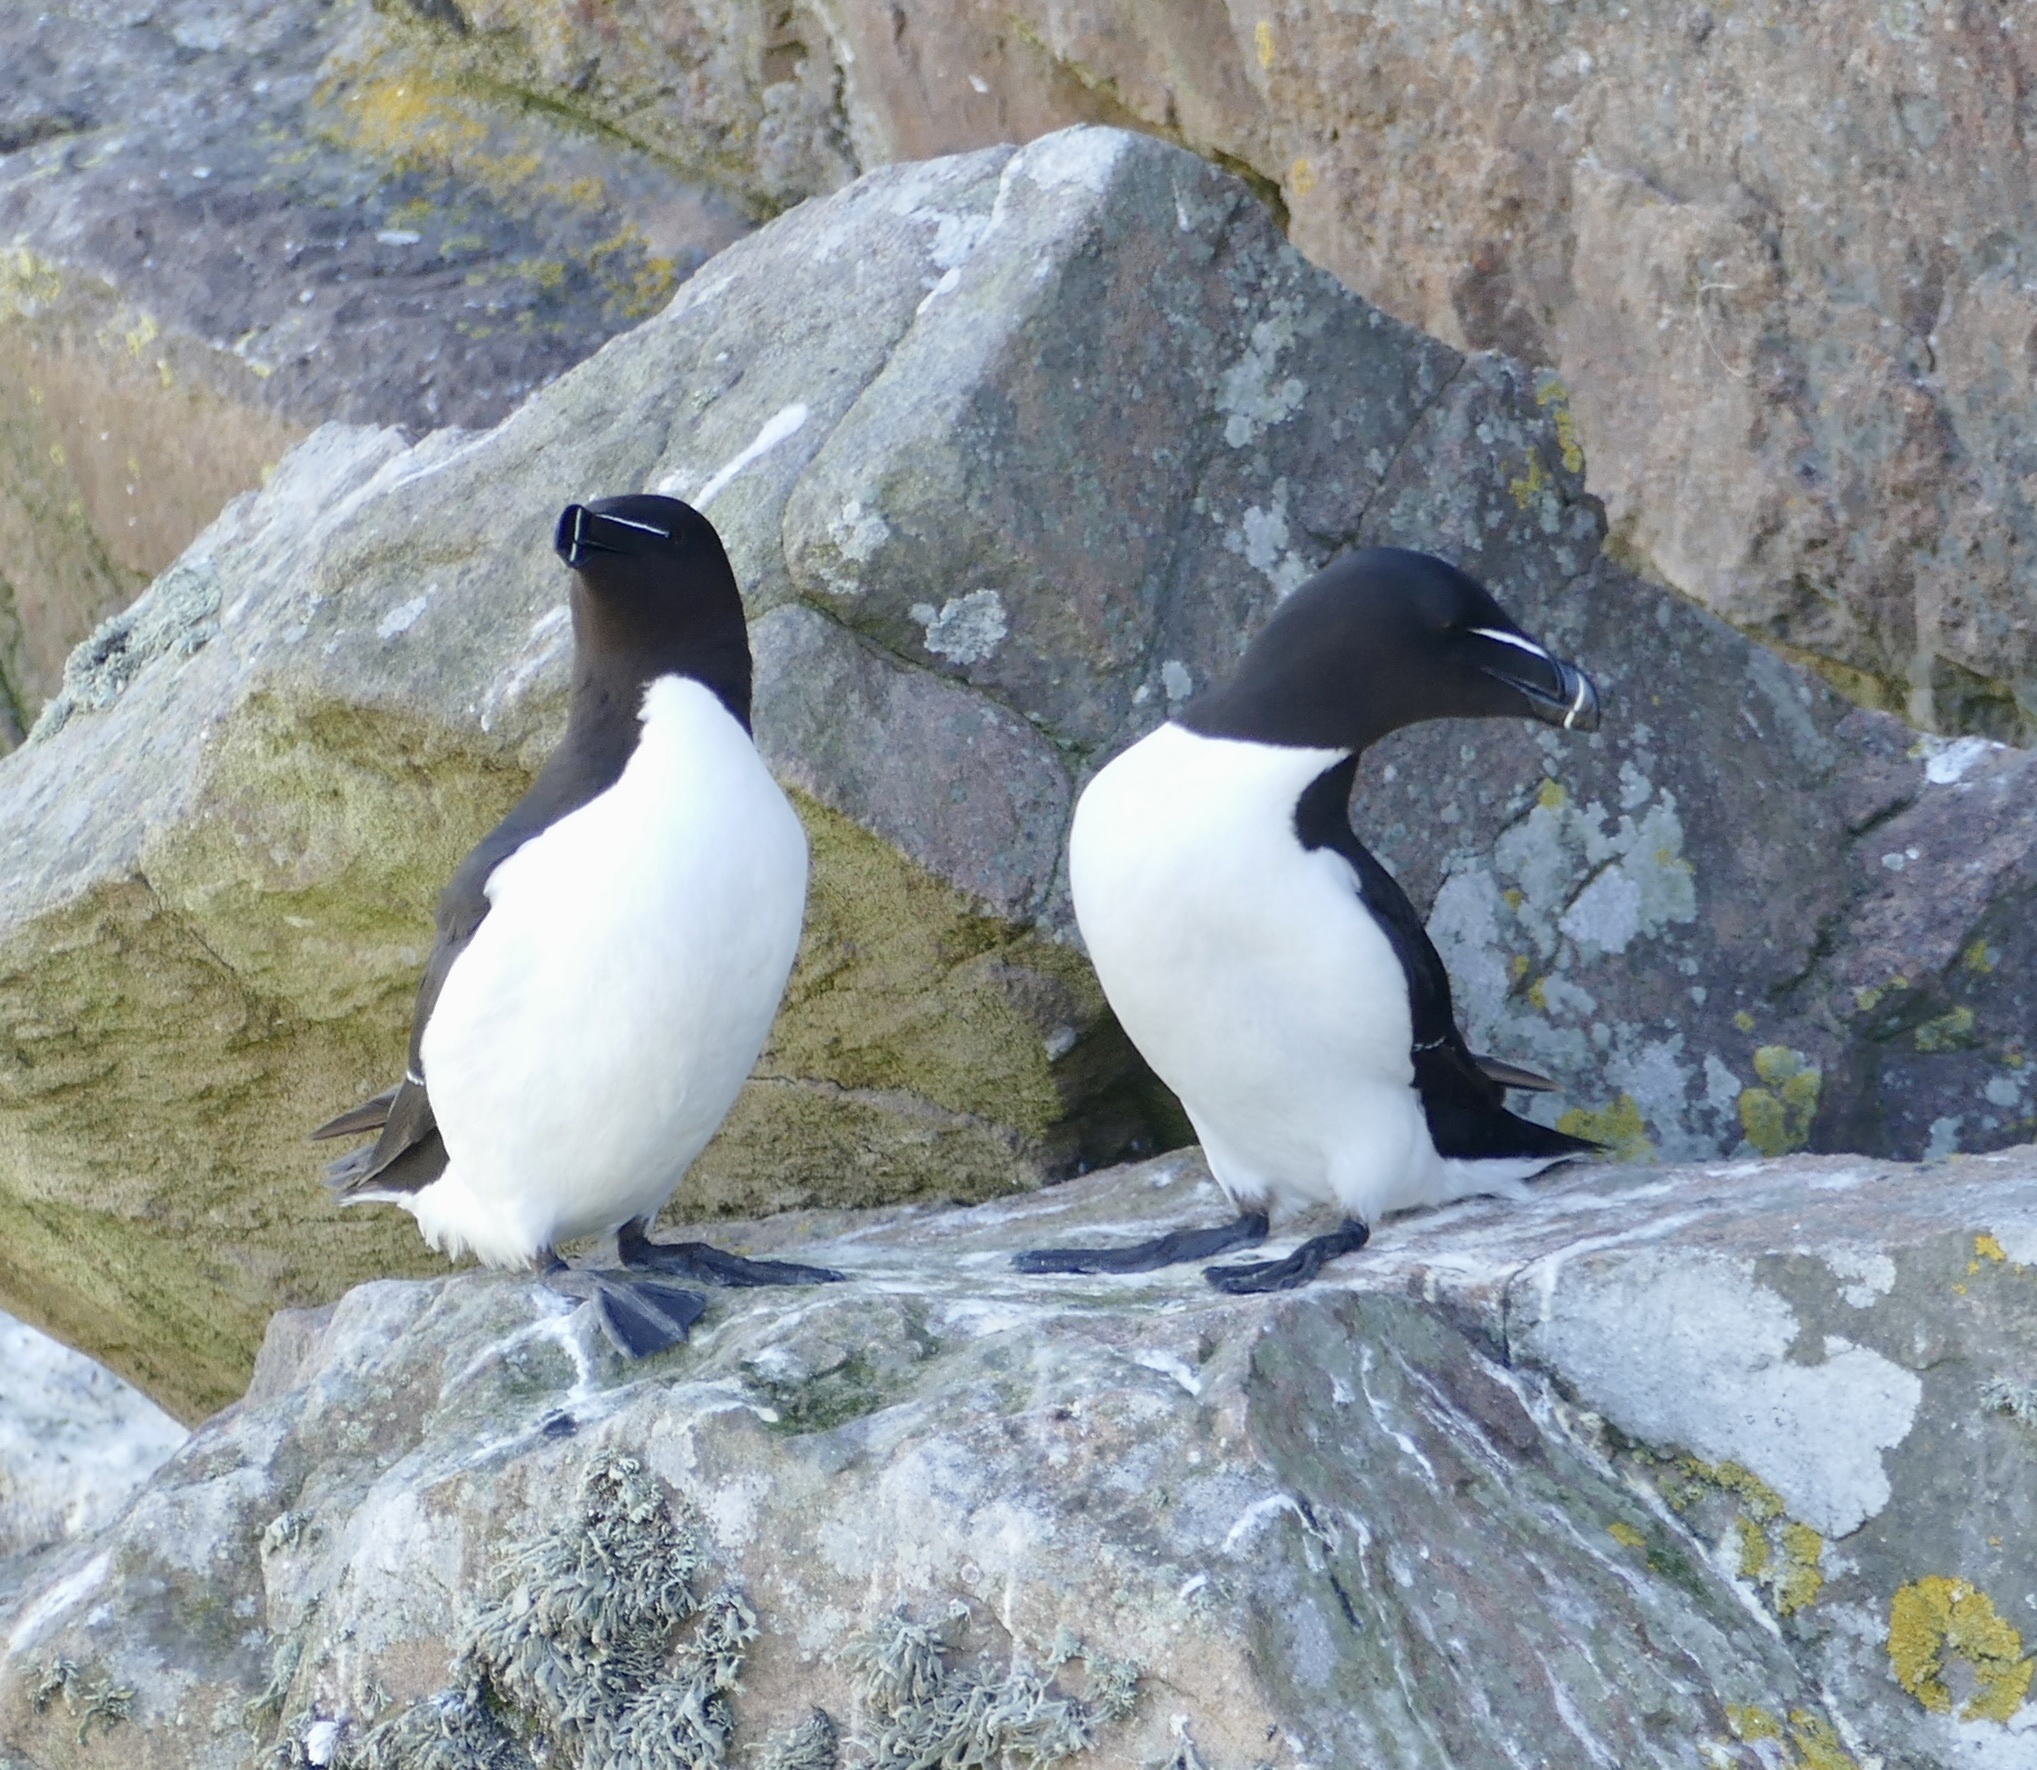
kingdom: Animalia
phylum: Chordata
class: Aves
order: Charadriiformes
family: Alcidae
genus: Alca
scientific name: Alca torda
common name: Razorbill
